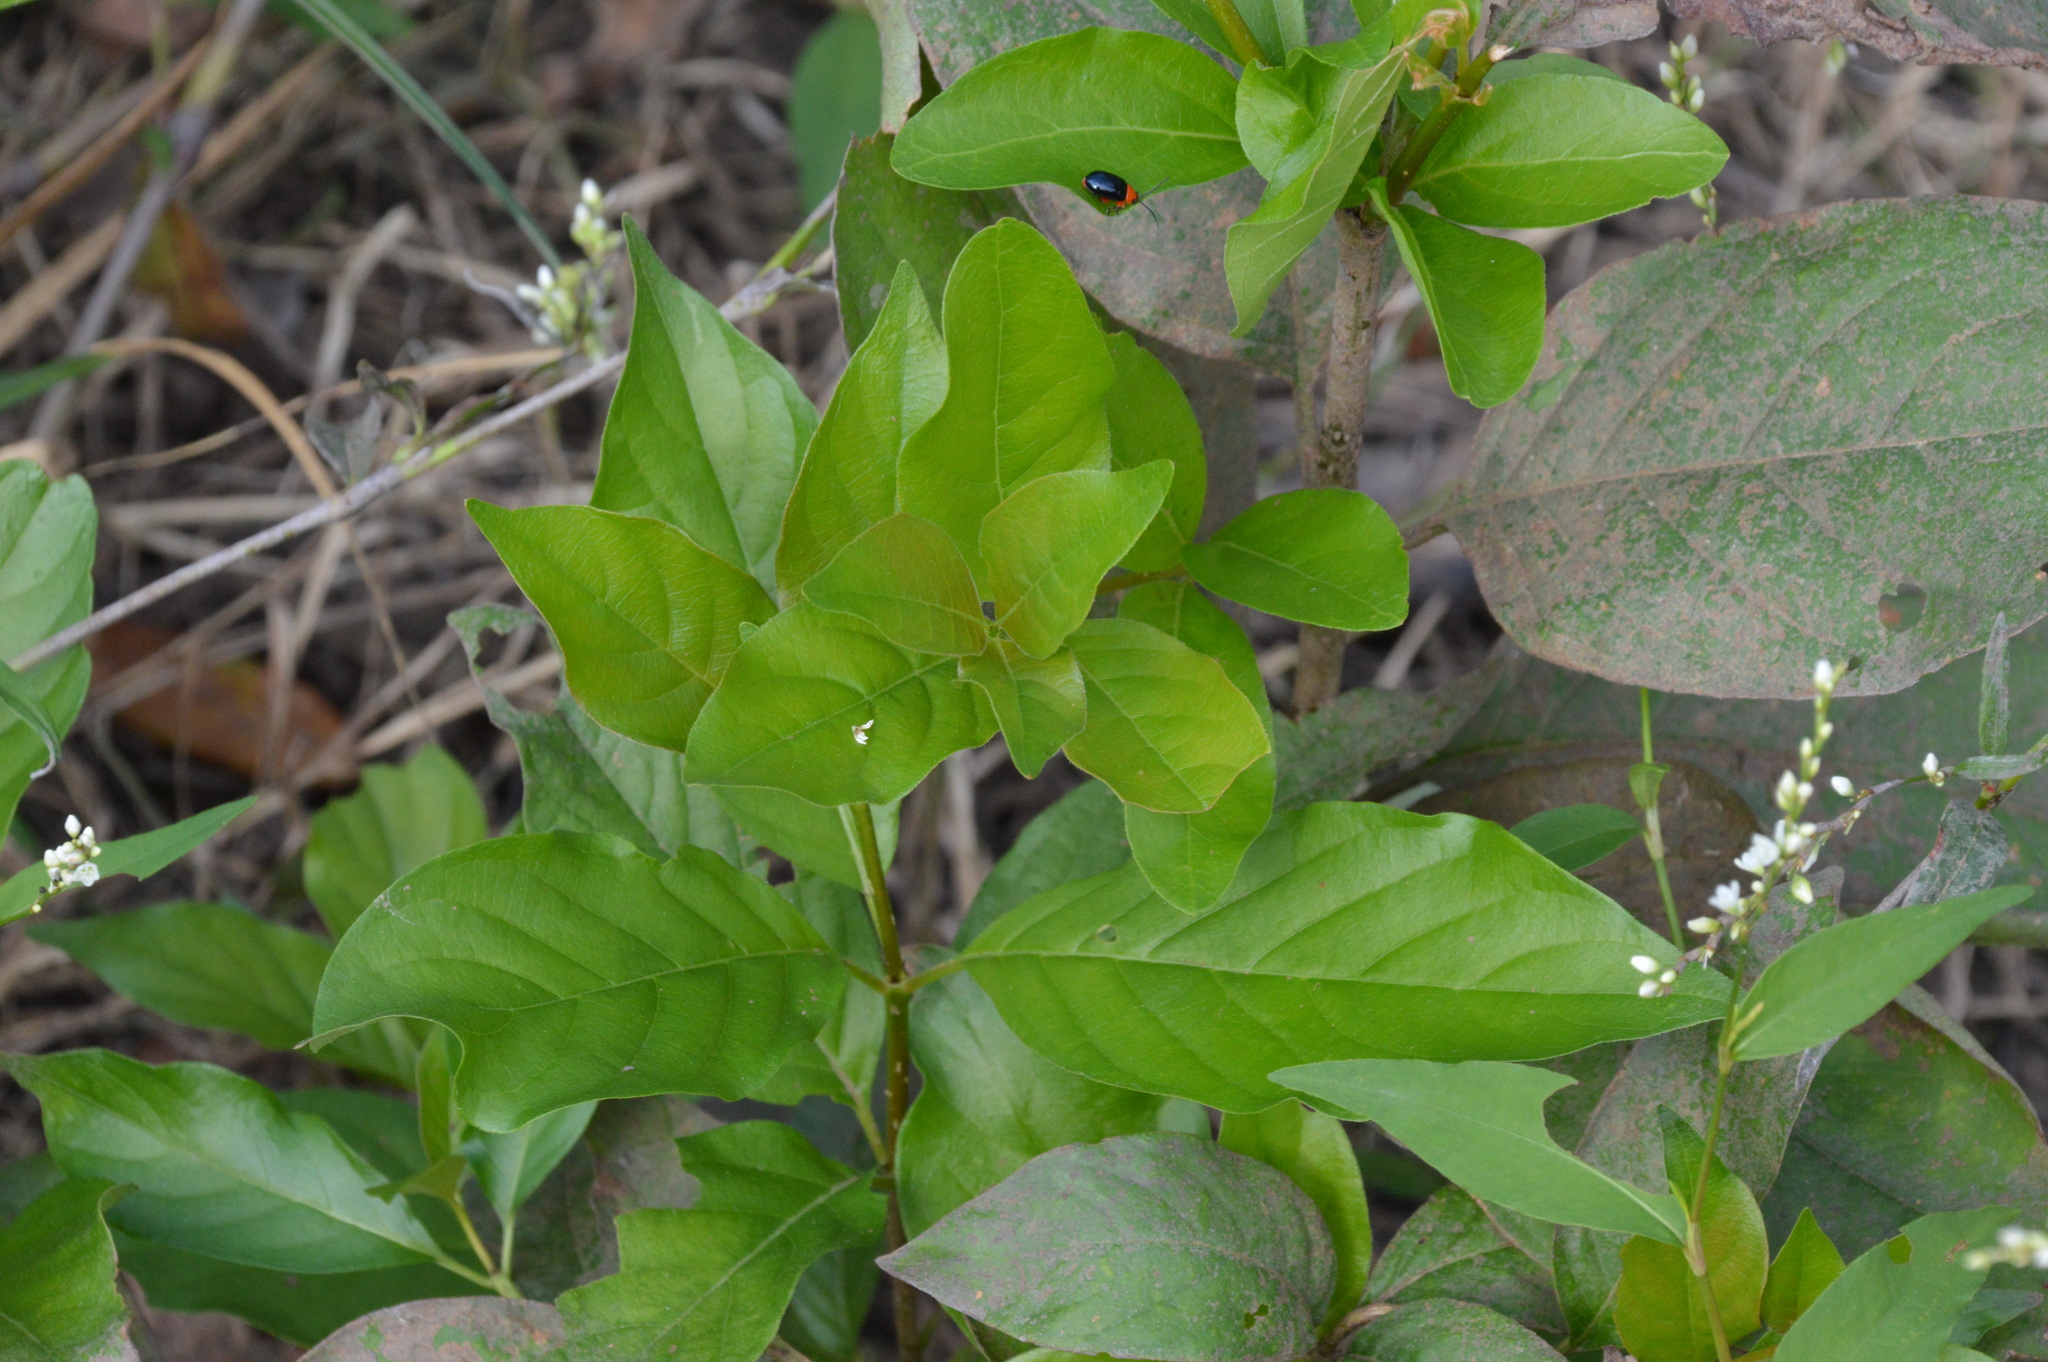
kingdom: Plantae
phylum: Tracheophyta
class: Magnoliopsida
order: Gentianales
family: Rubiaceae
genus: Cephalanthus
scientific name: Cephalanthus occidentalis
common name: Button-willow
